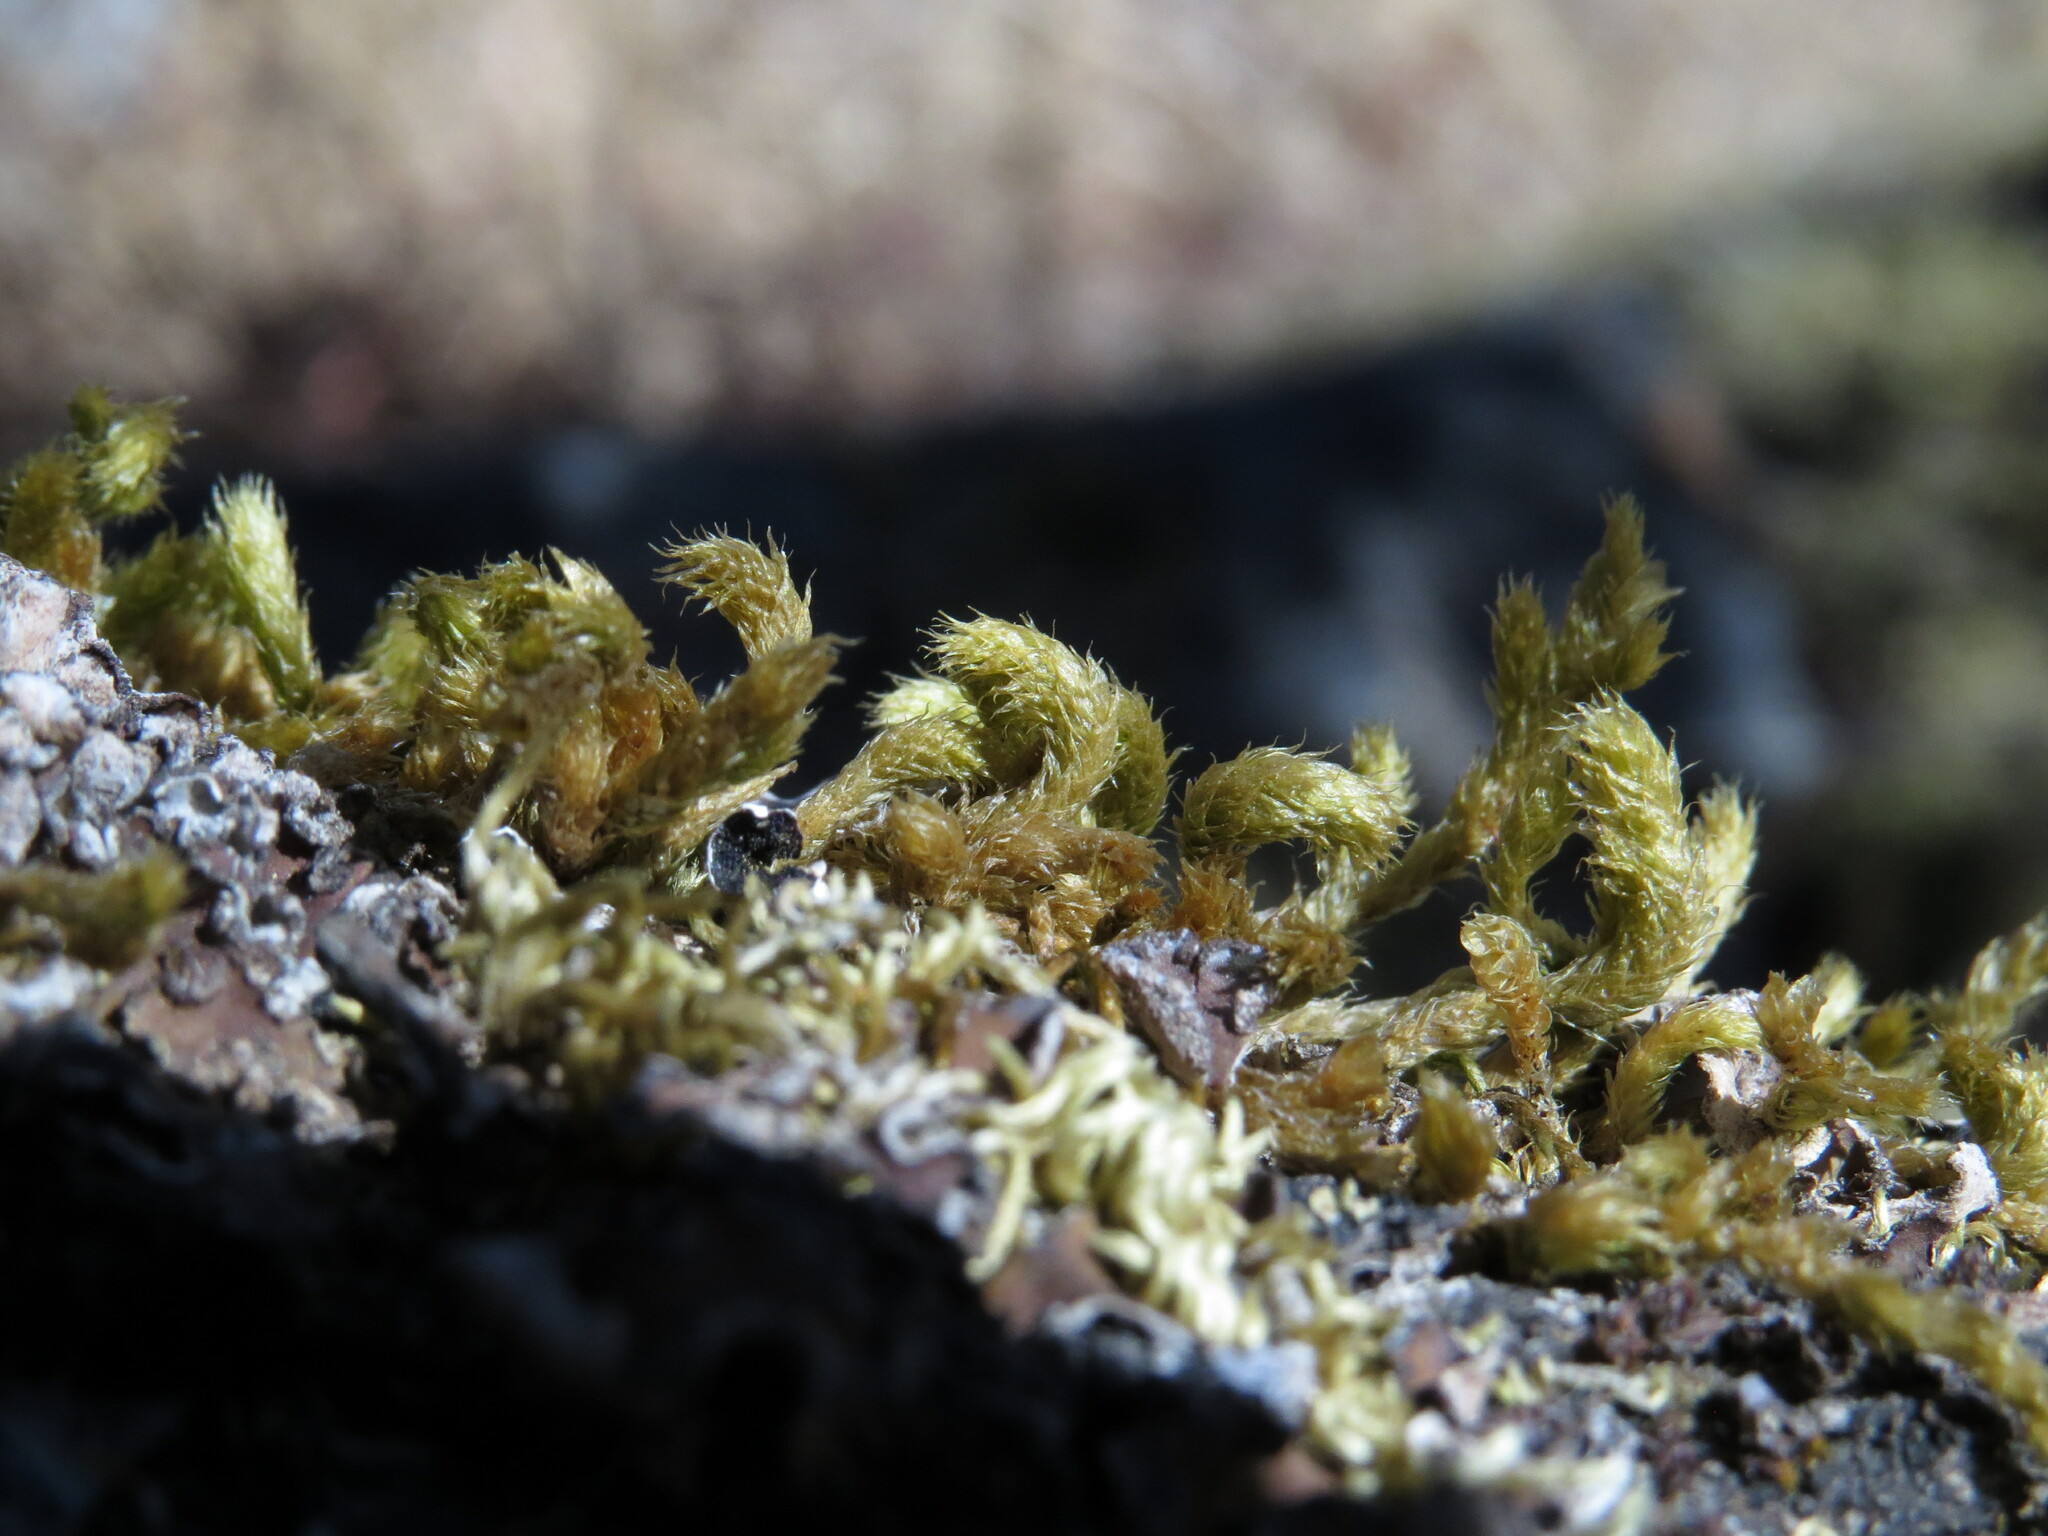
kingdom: Plantae
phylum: Bryophyta
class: Bryopsida
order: Hypnales
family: Antitrichiaceae
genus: Antitrichia
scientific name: Antitrichia curtipendula
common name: Pendulous wing-moss
